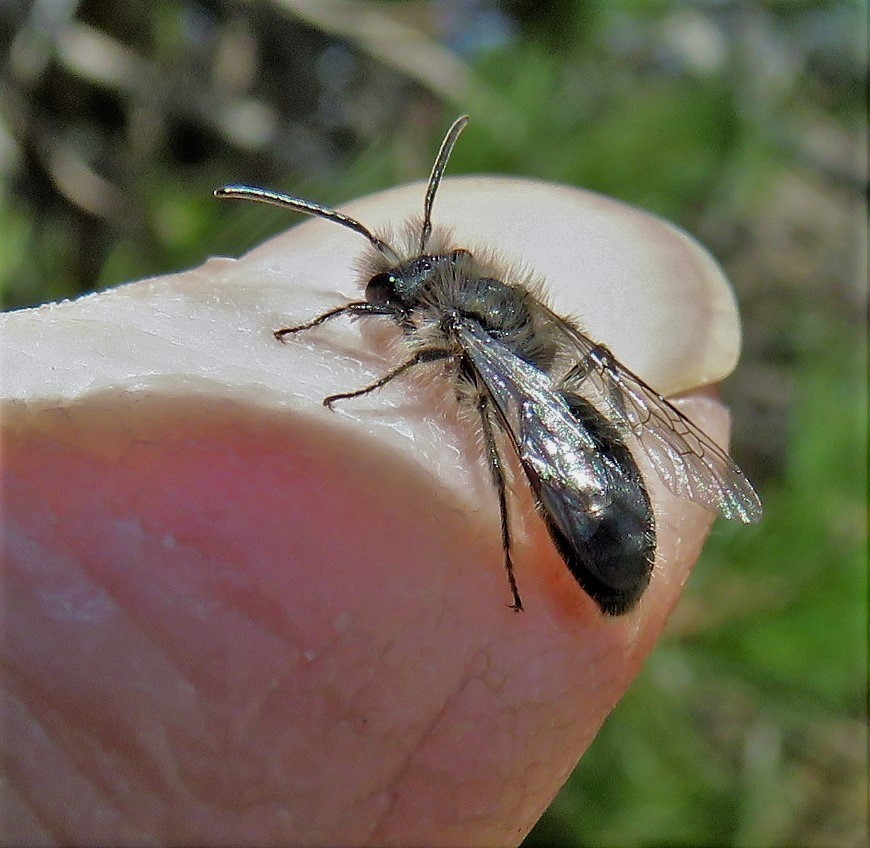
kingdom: Animalia
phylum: Arthropoda
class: Insecta
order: Hymenoptera
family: Andrenidae
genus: Andrena
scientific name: Andrena frigida
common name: Frigid mining bee
